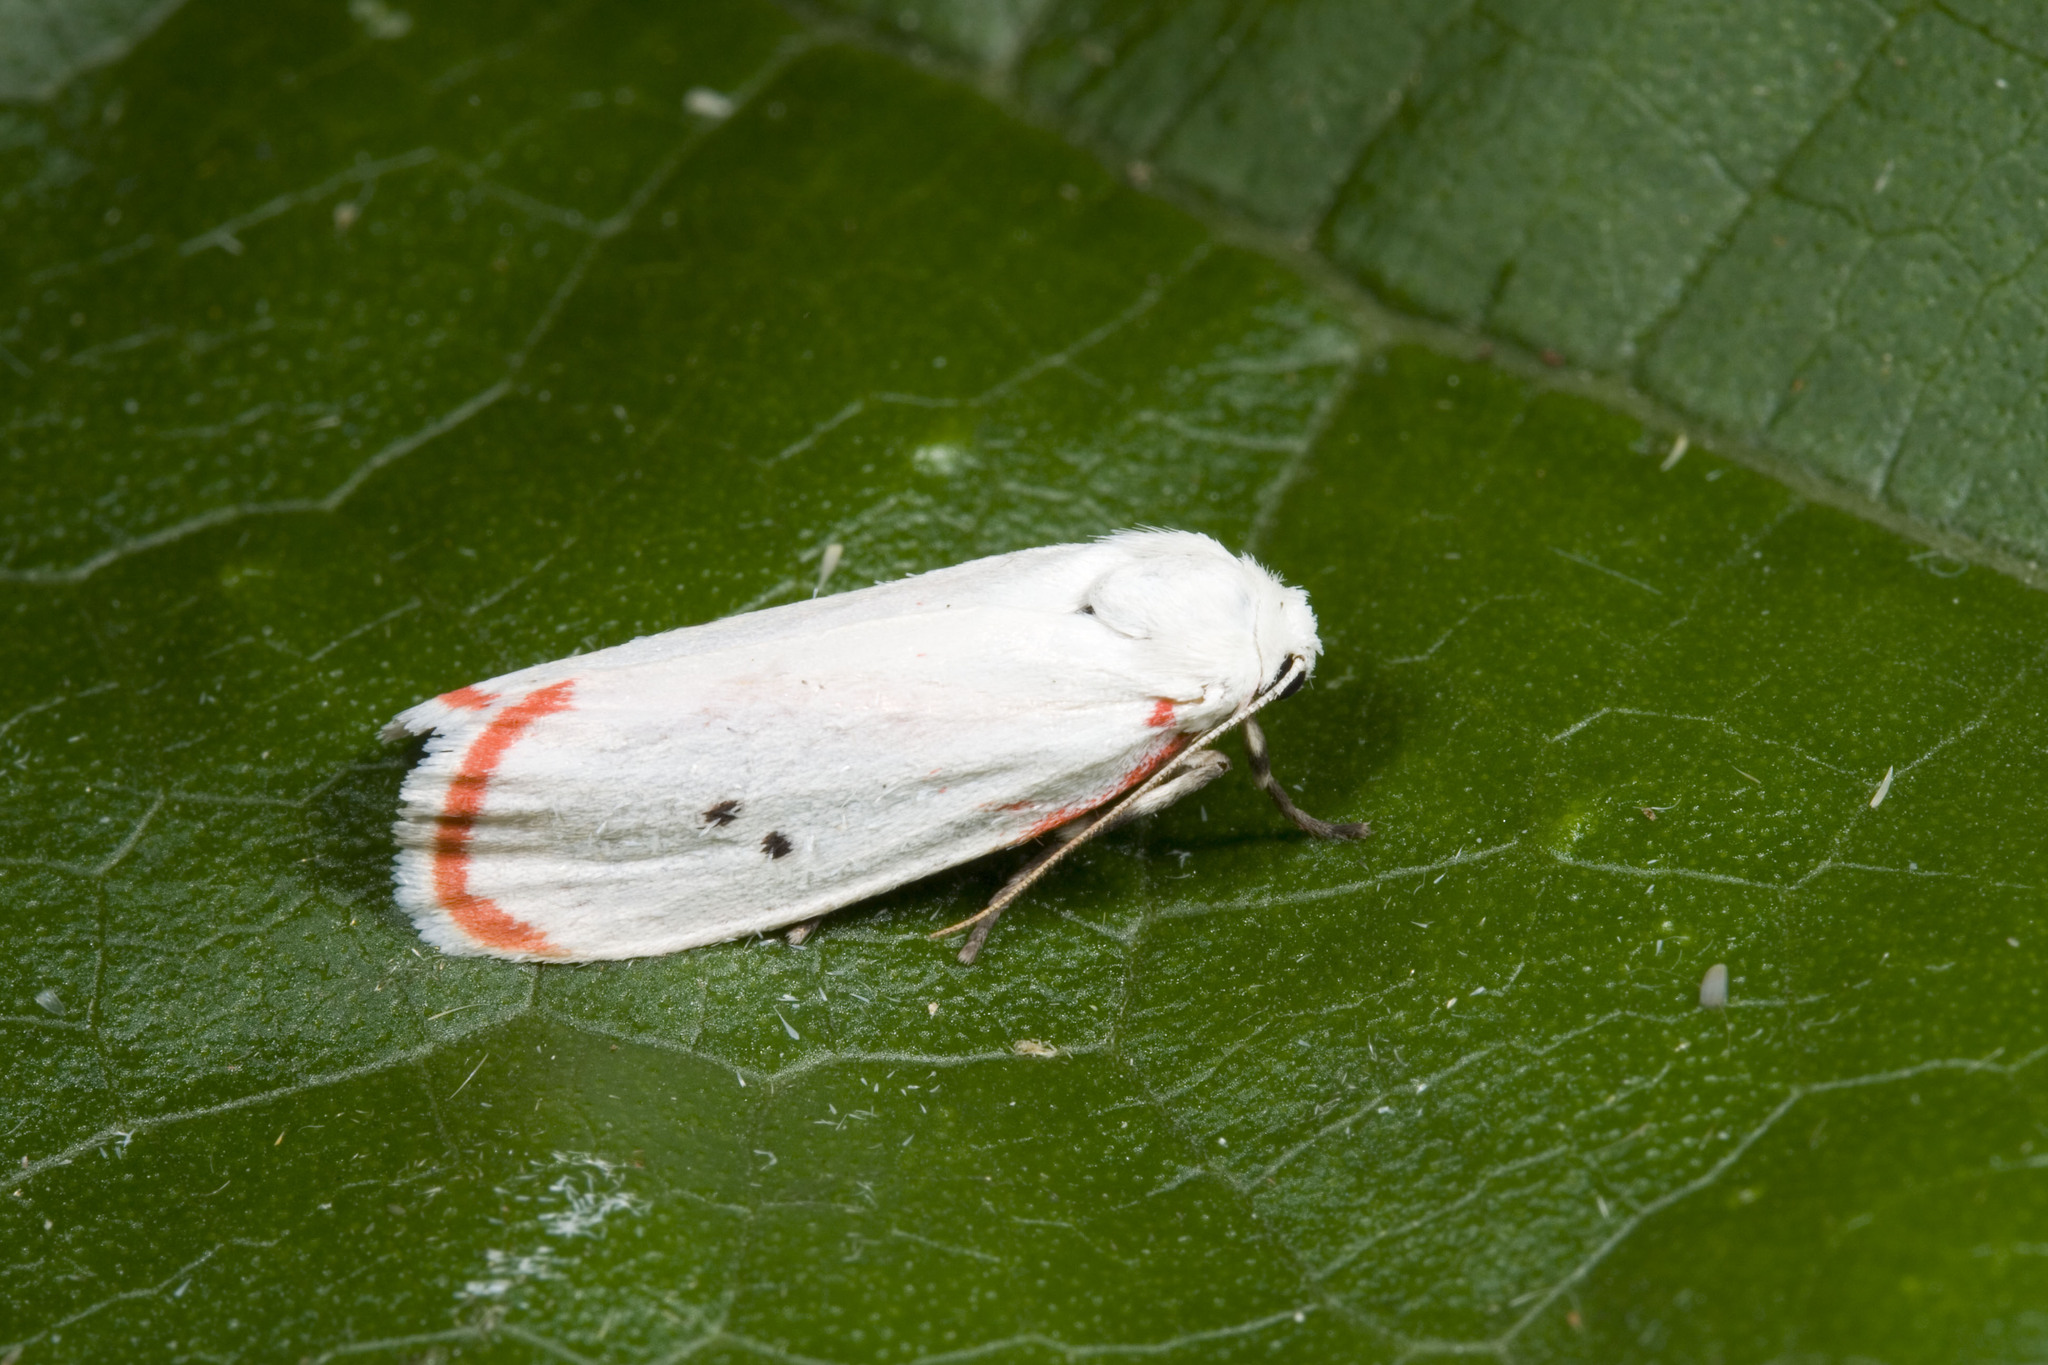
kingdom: Animalia
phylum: Arthropoda
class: Insecta
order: Lepidoptera
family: Erebidae
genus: Cyana
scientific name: Cyana hsui
